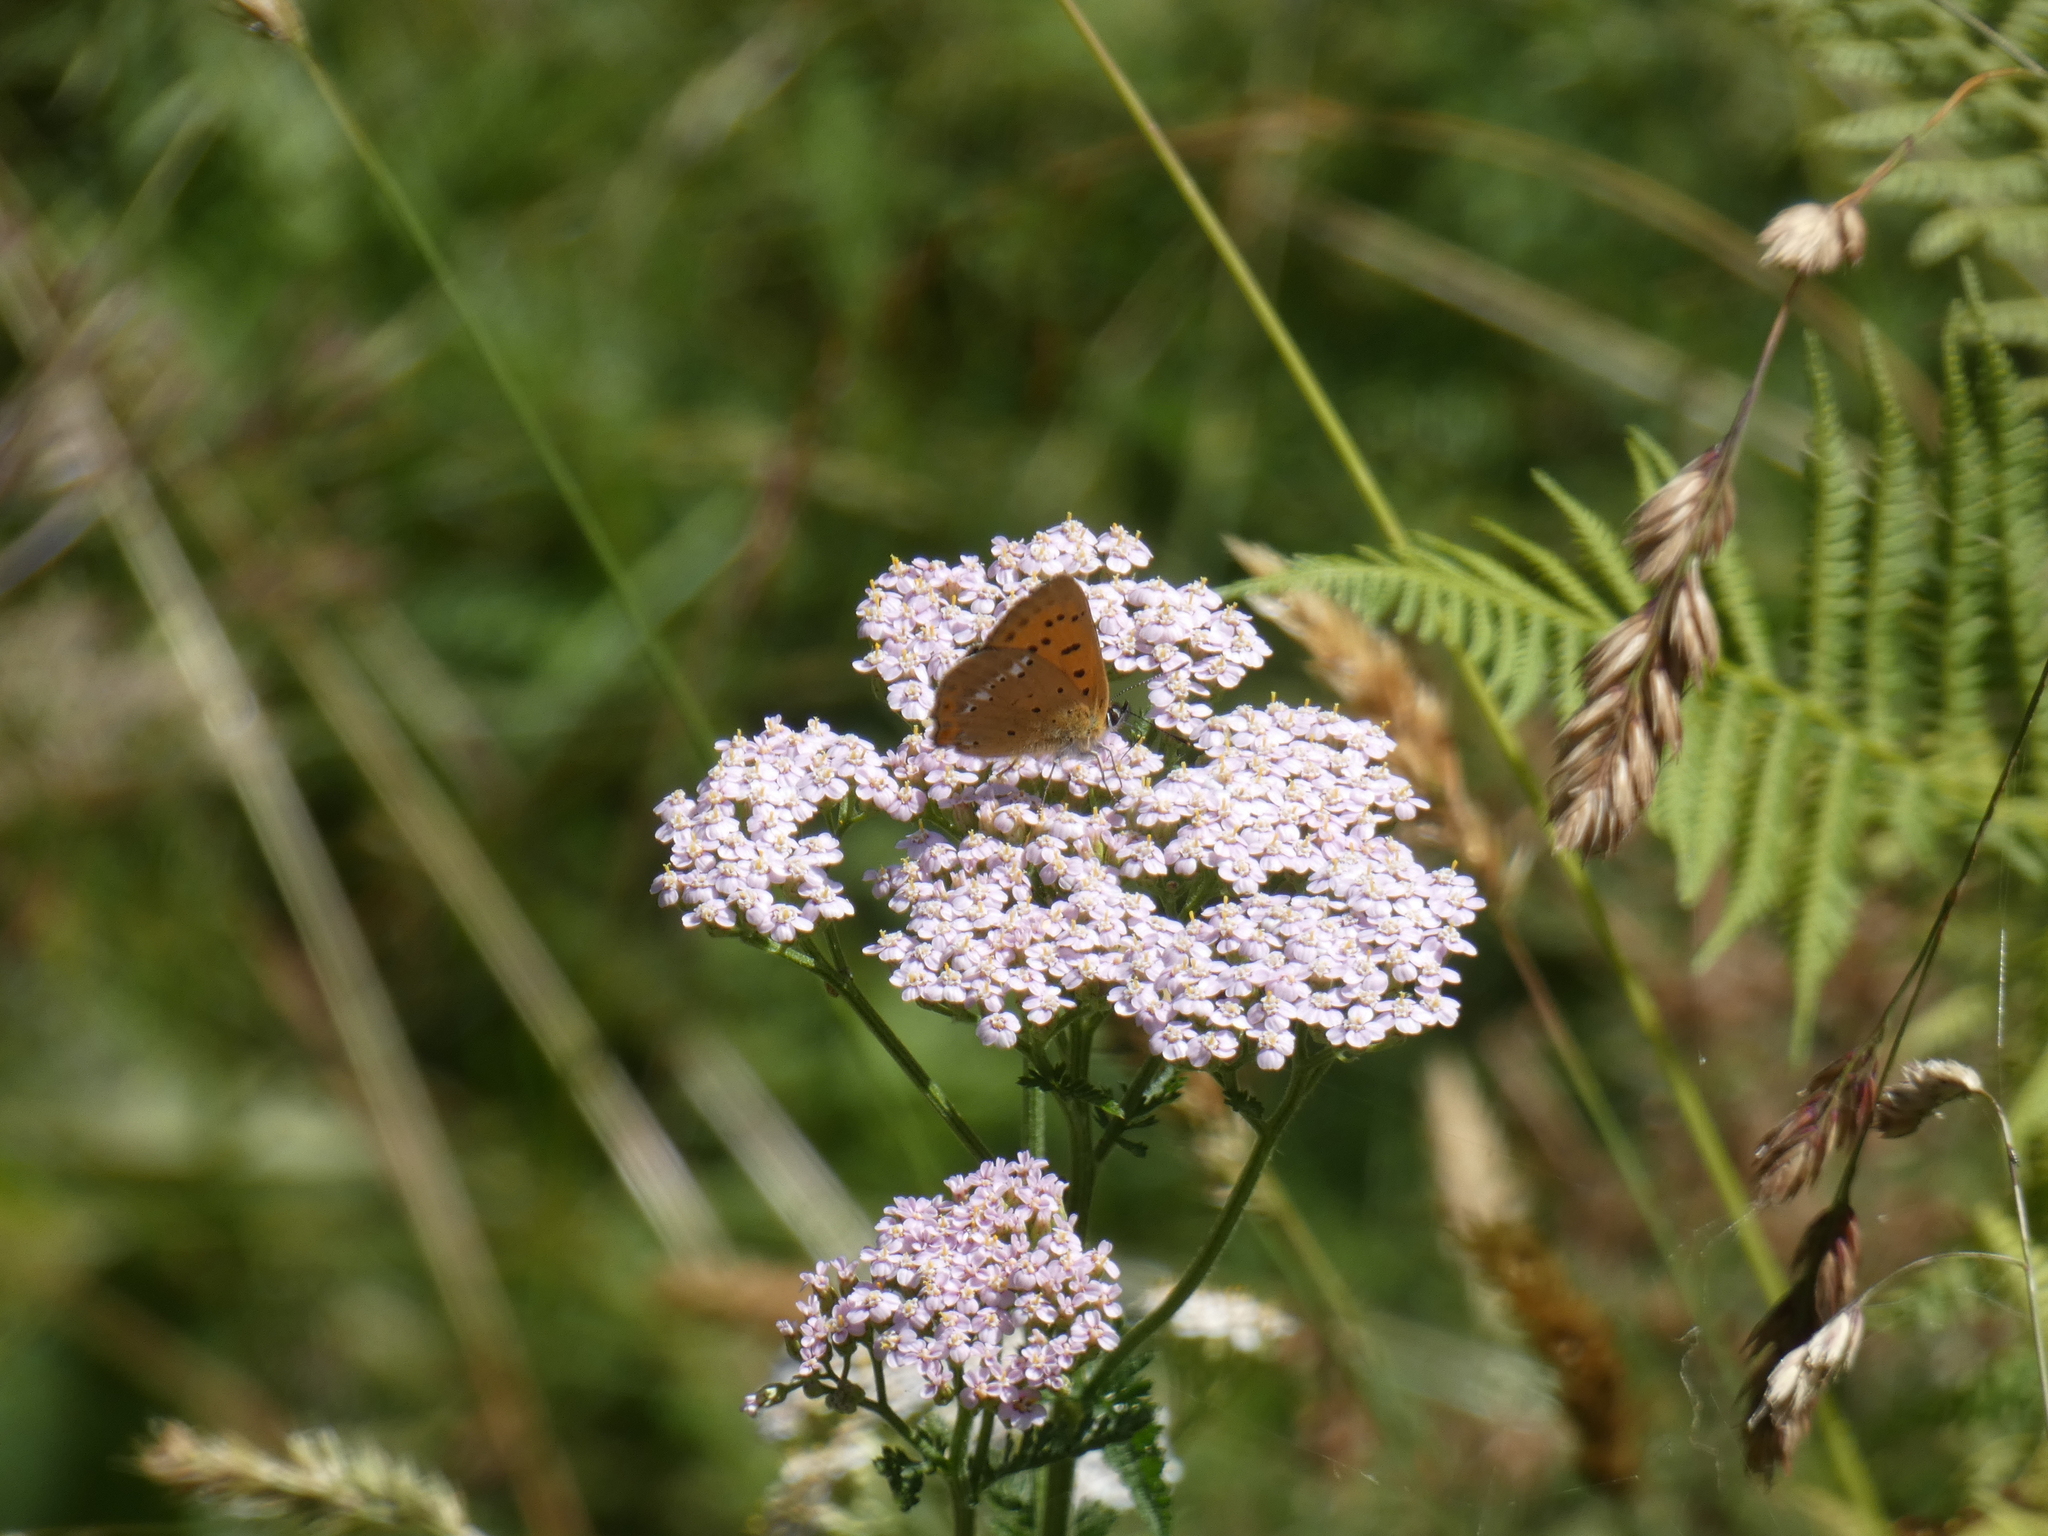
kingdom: Animalia
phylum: Arthropoda
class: Insecta
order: Lepidoptera
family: Lycaenidae
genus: Lycaena
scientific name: Lycaena virgaureae
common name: Scarce copper
